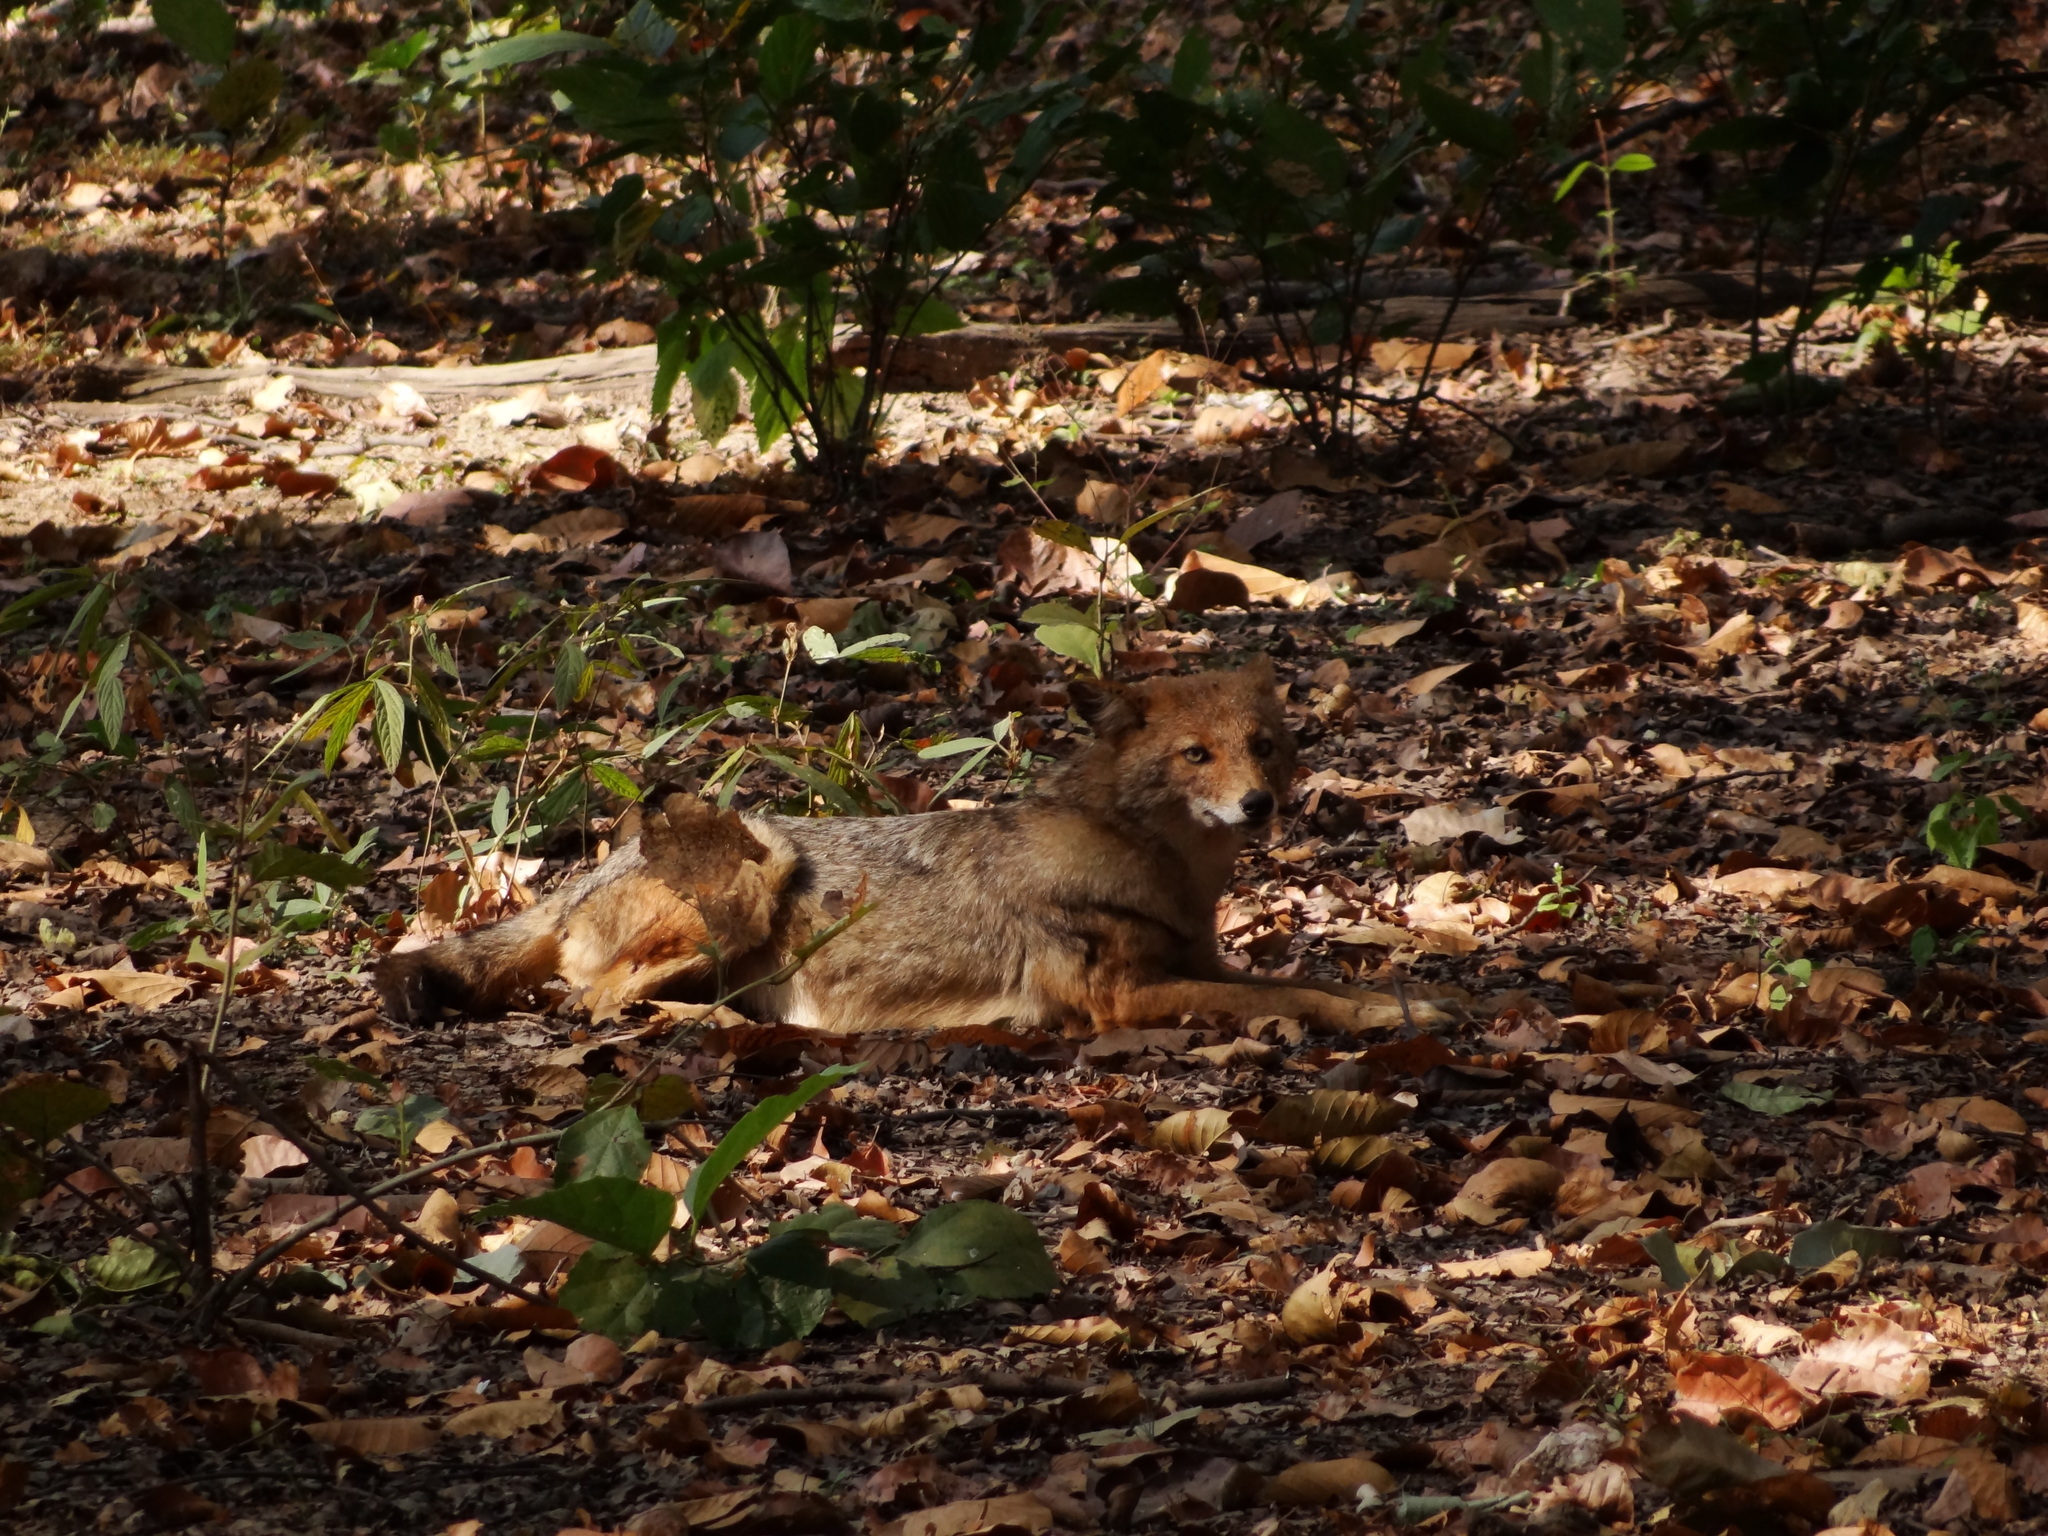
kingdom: Animalia
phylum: Chordata
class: Mammalia
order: Carnivora
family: Canidae
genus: Canis
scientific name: Canis aureus
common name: Golden jackal
